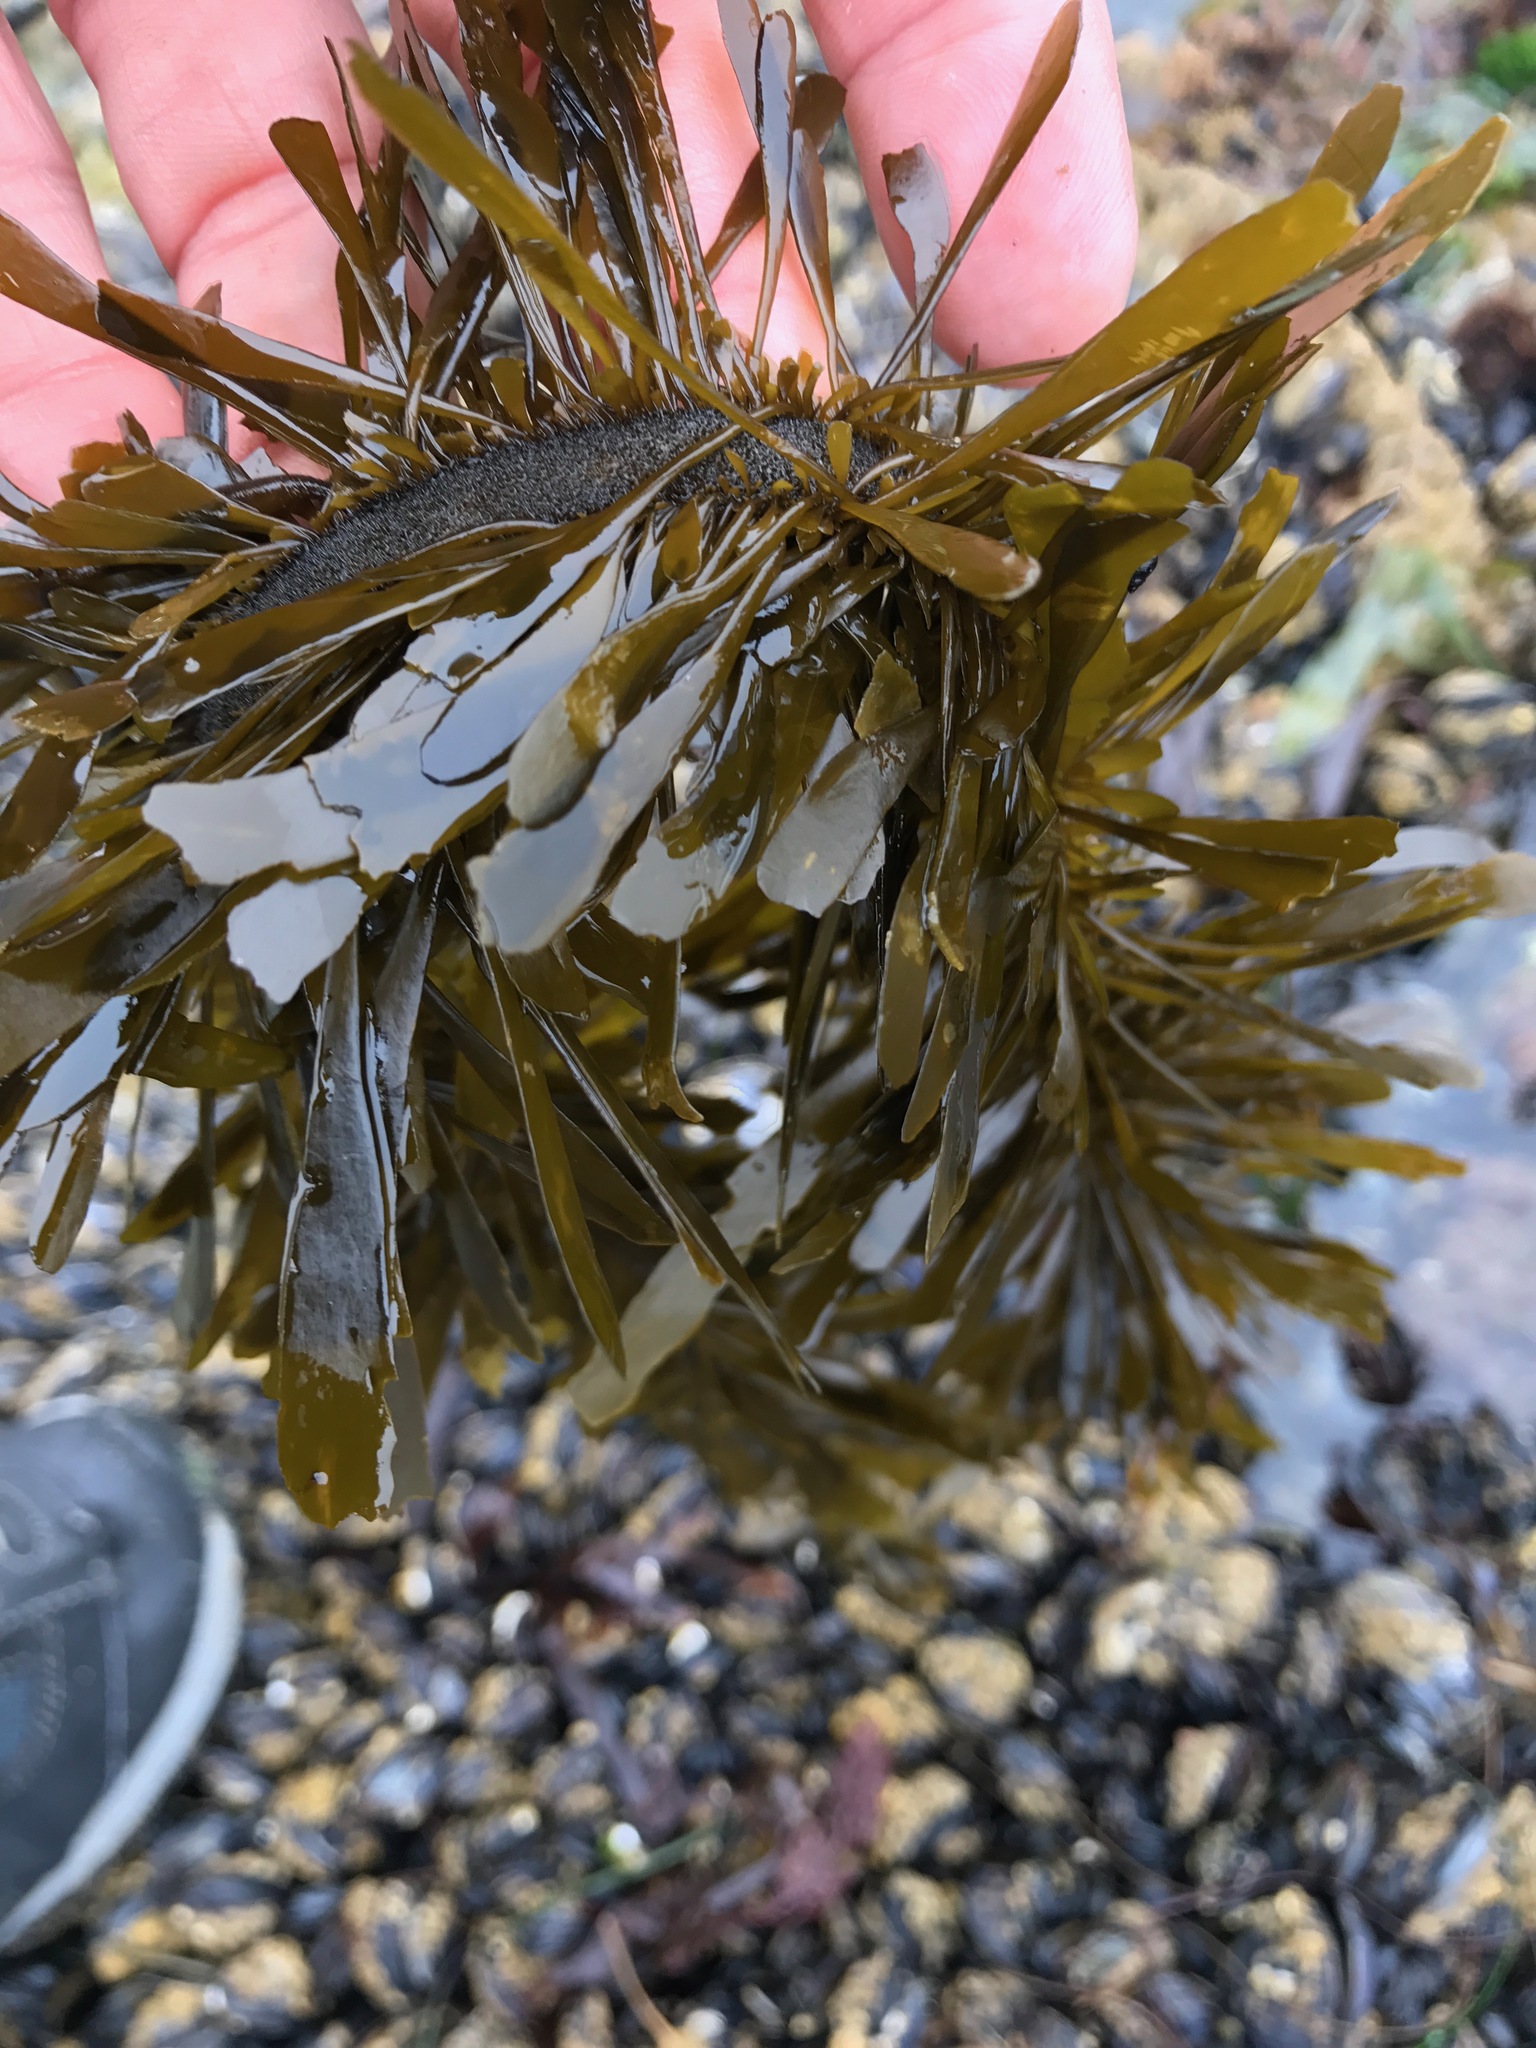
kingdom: Chromista
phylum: Ochrophyta
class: Phaeophyceae
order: Laminariales
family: Lessoniaceae
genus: Egregia
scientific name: Egregia menziesii
